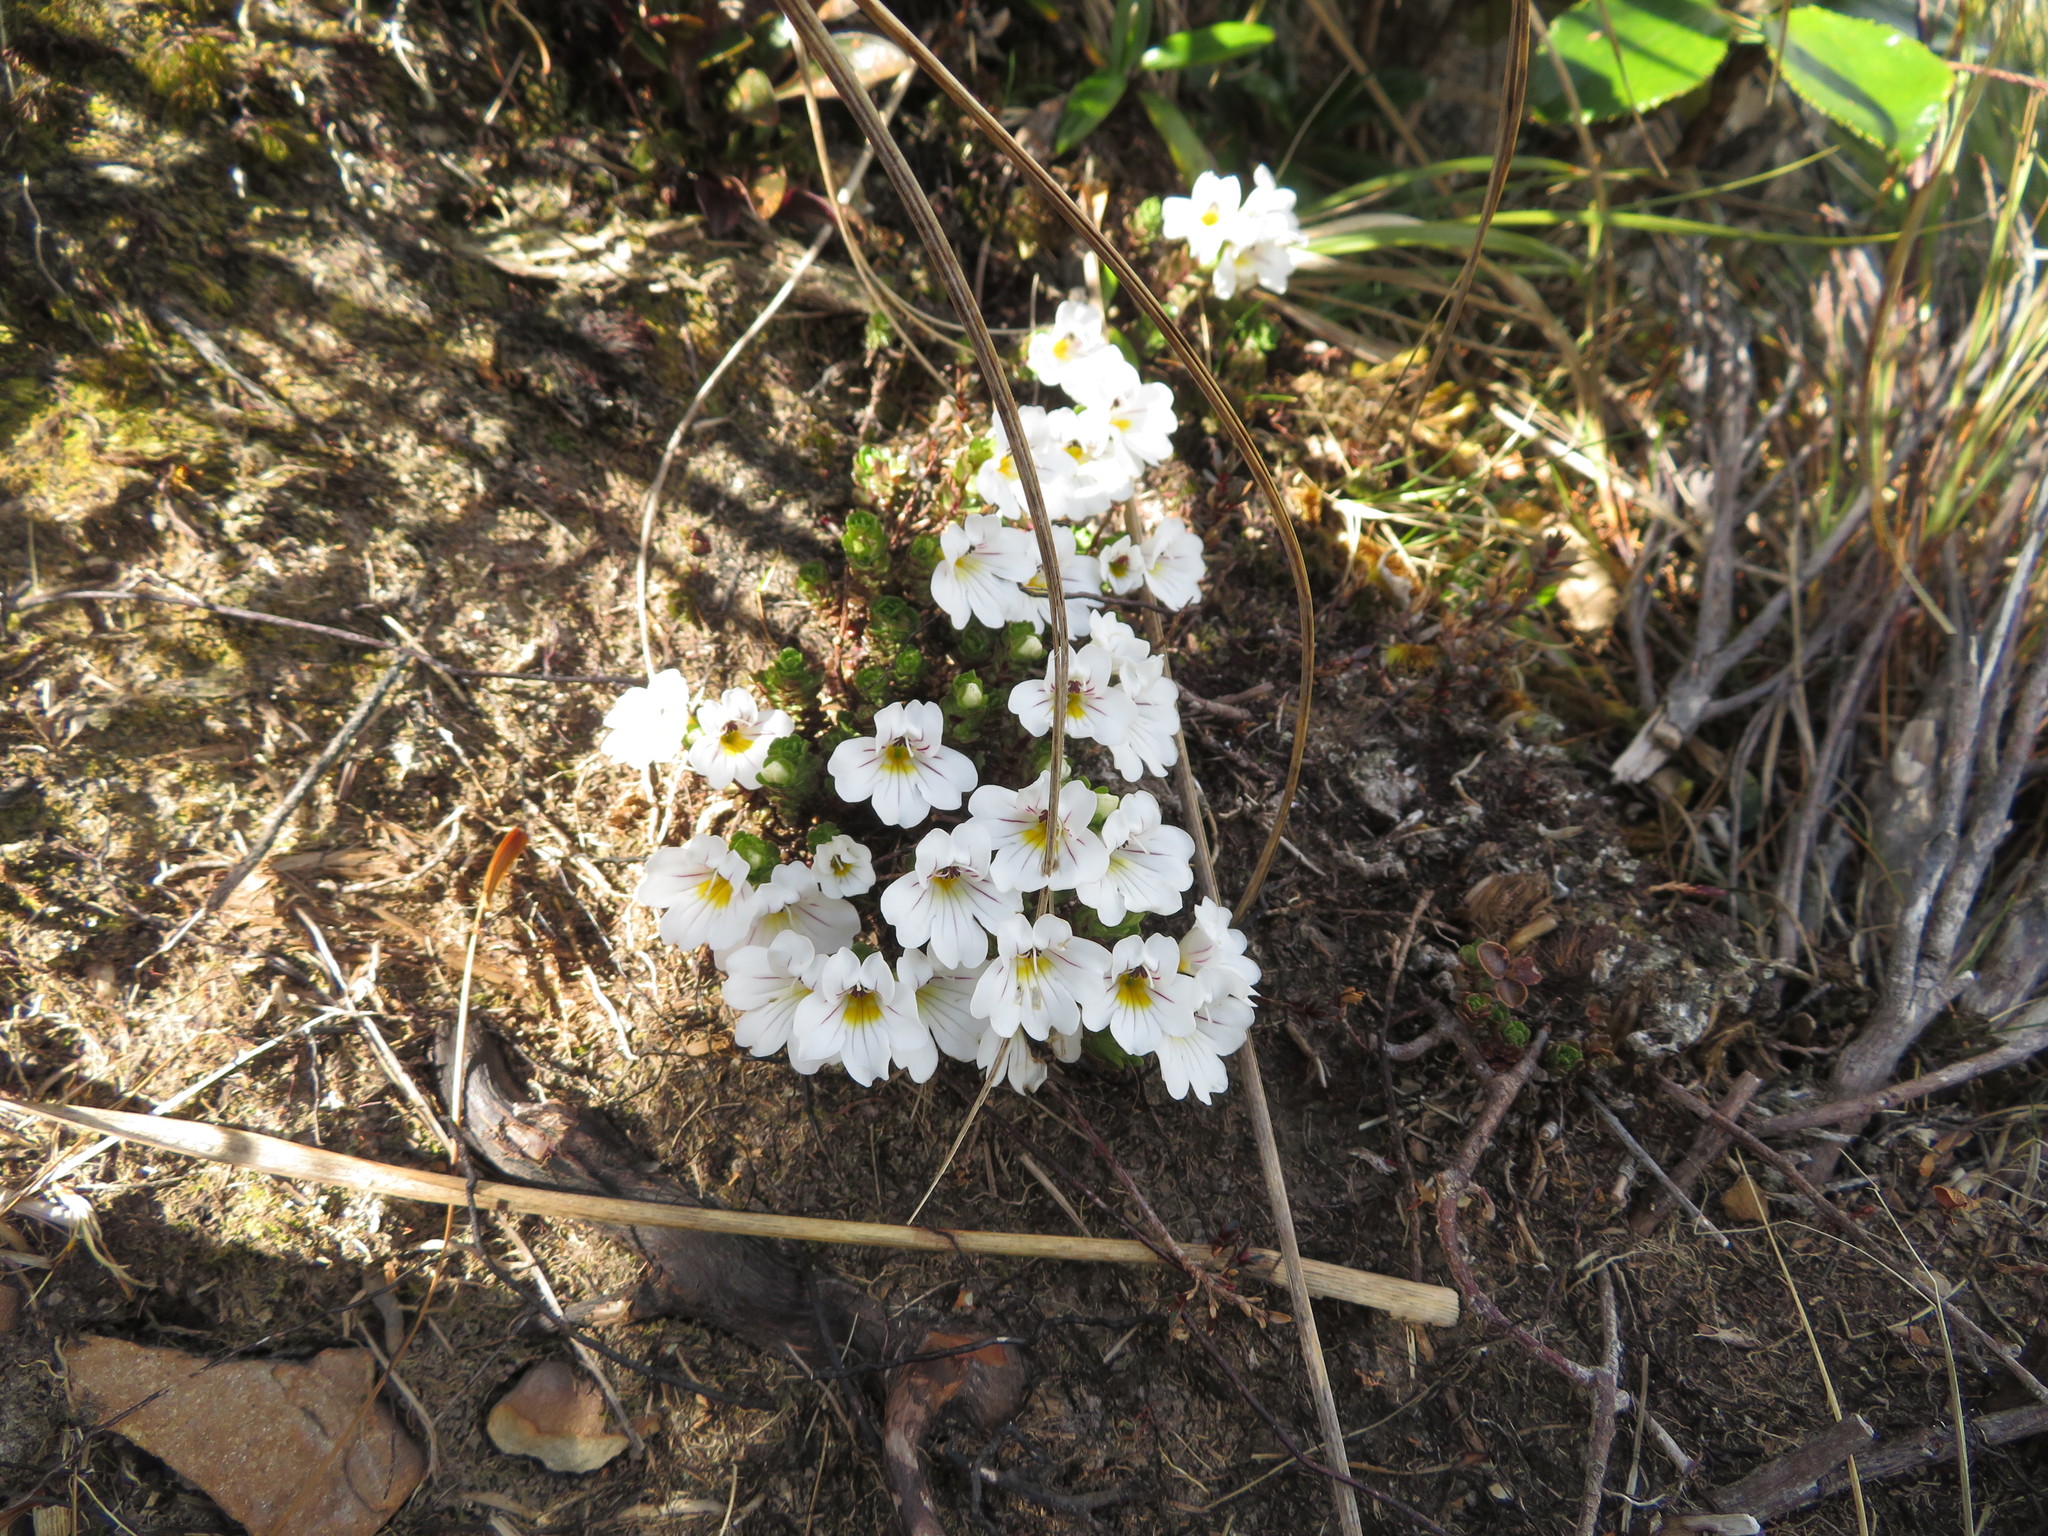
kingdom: Plantae
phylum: Tracheophyta
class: Magnoliopsida
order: Lamiales
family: Orobanchaceae
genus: Euphrasia
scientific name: Euphrasia drucei
